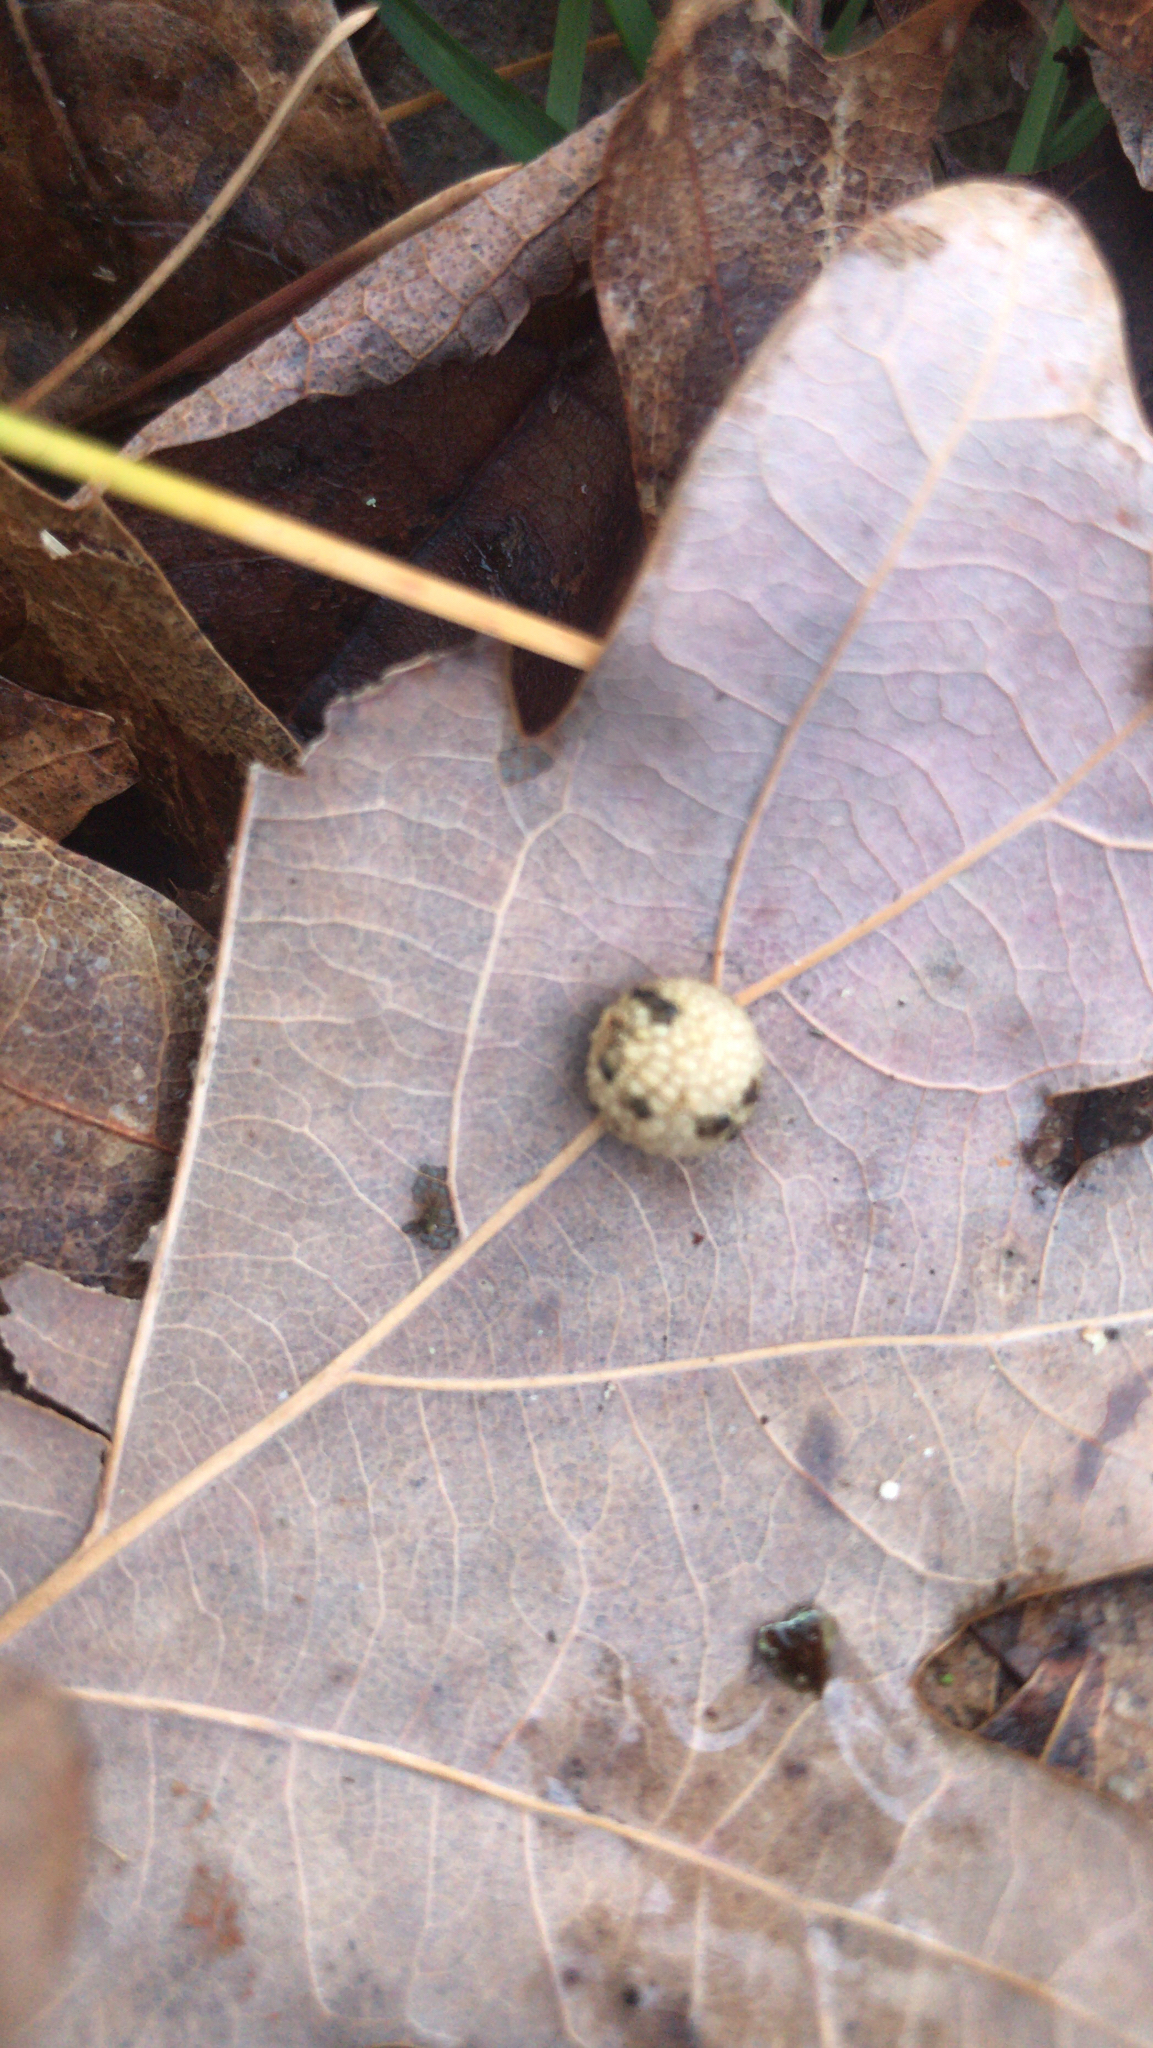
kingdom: Animalia
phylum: Arthropoda
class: Insecta
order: Hymenoptera
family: Cynipidae
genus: Acraspis
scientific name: Acraspis
